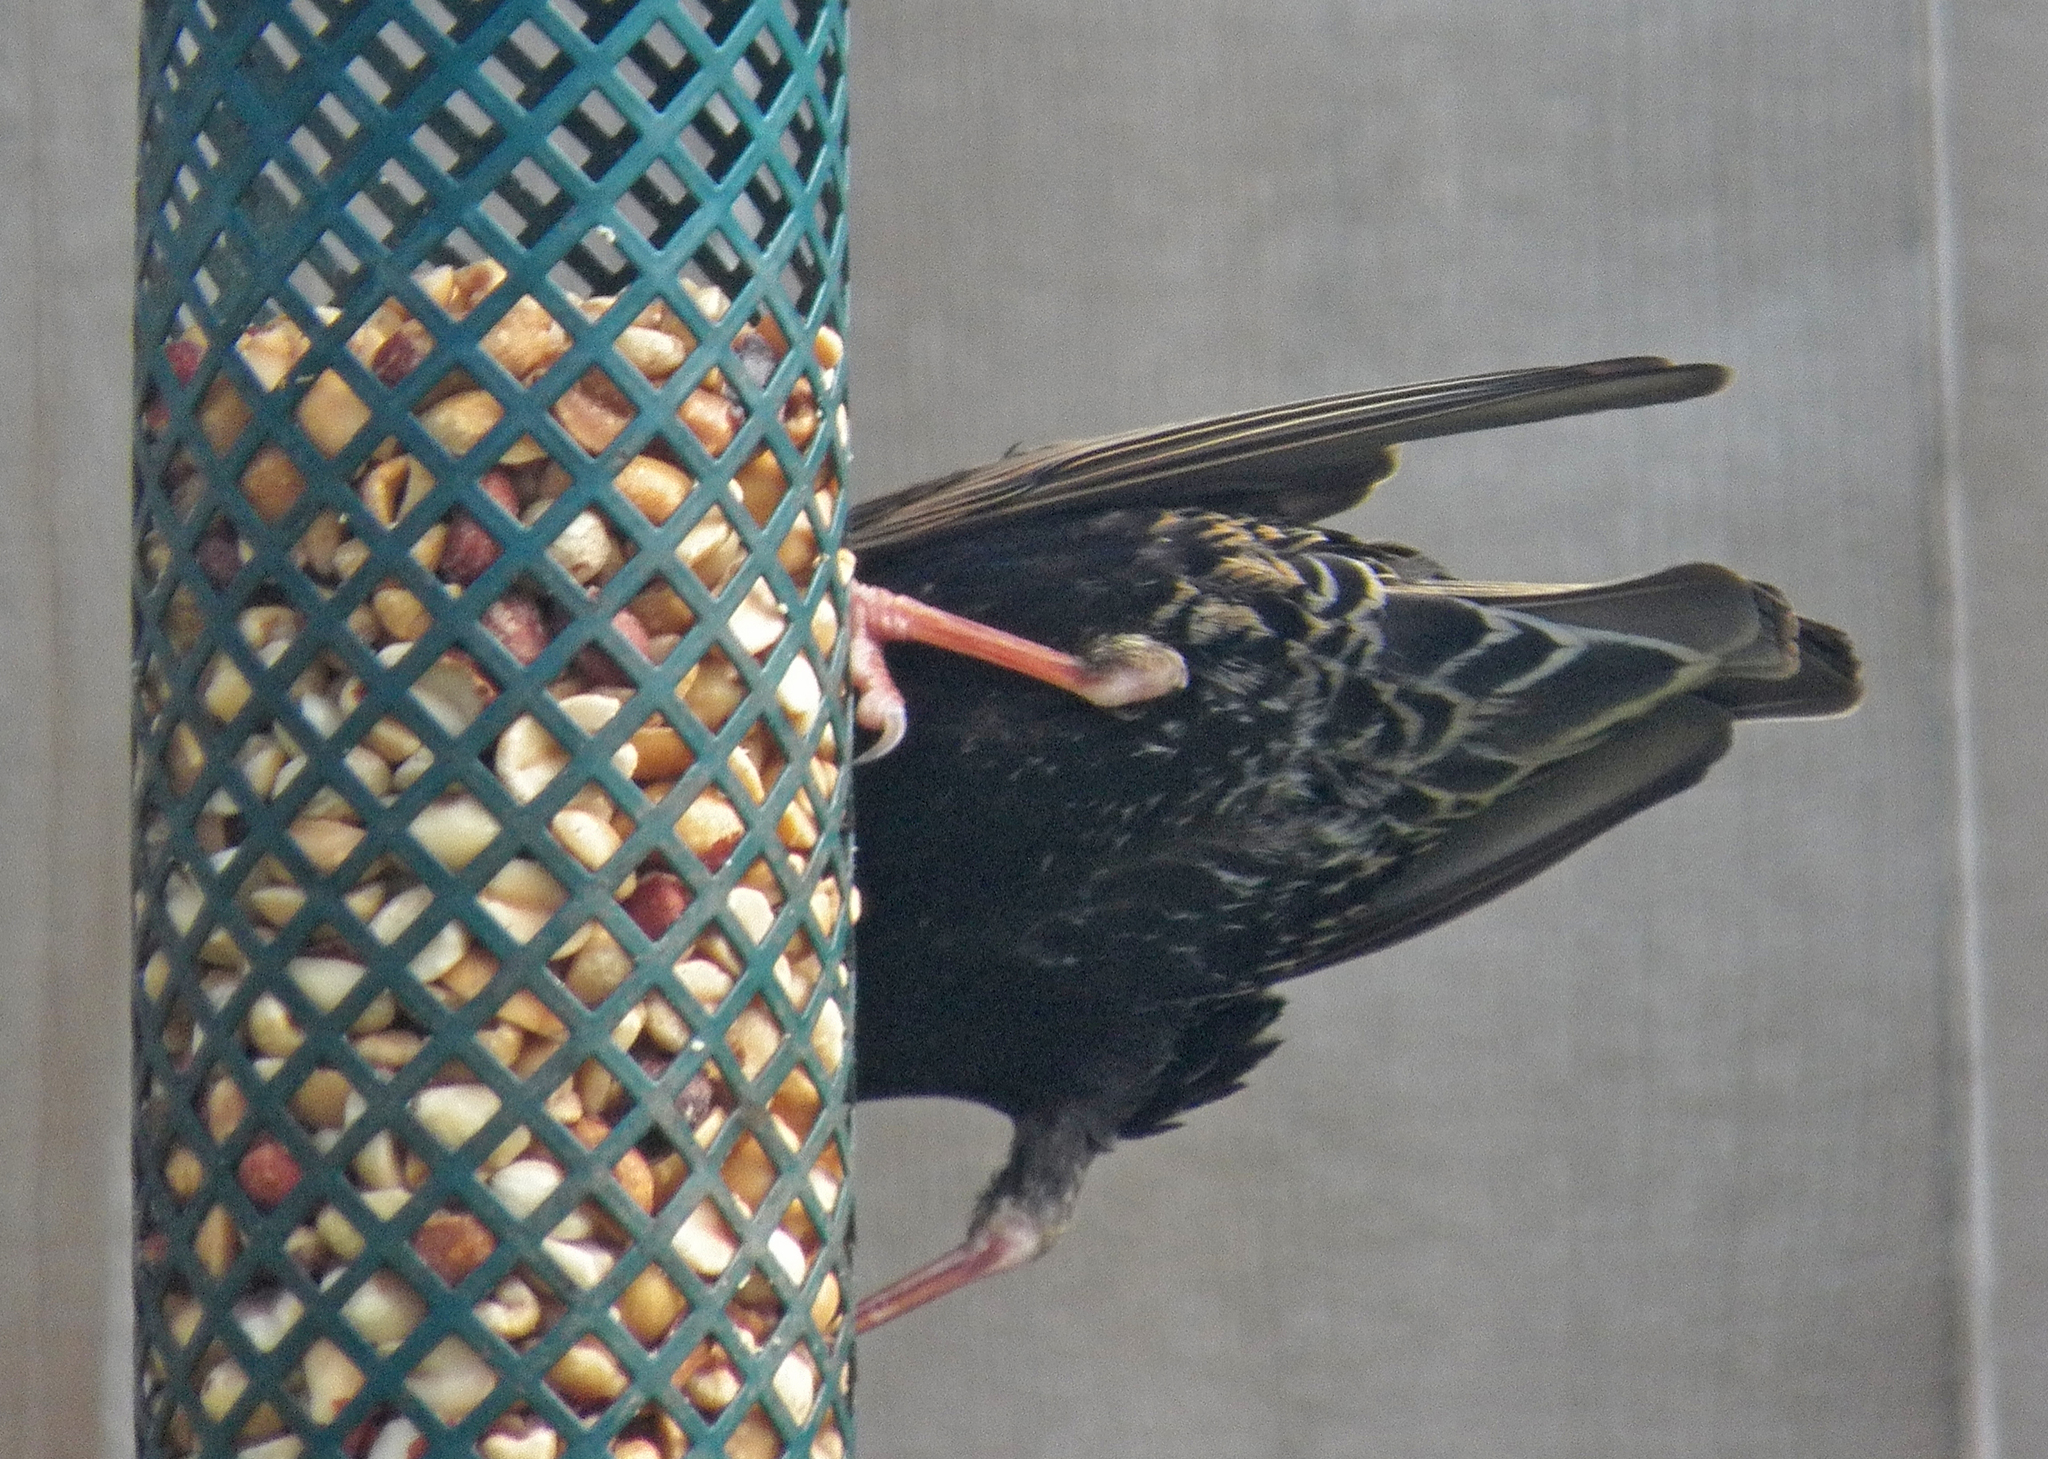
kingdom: Animalia
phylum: Chordata
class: Aves
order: Passeriformes
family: Sturnidae
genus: Sturnus
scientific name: Sturnus vulgaris
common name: Common starling
